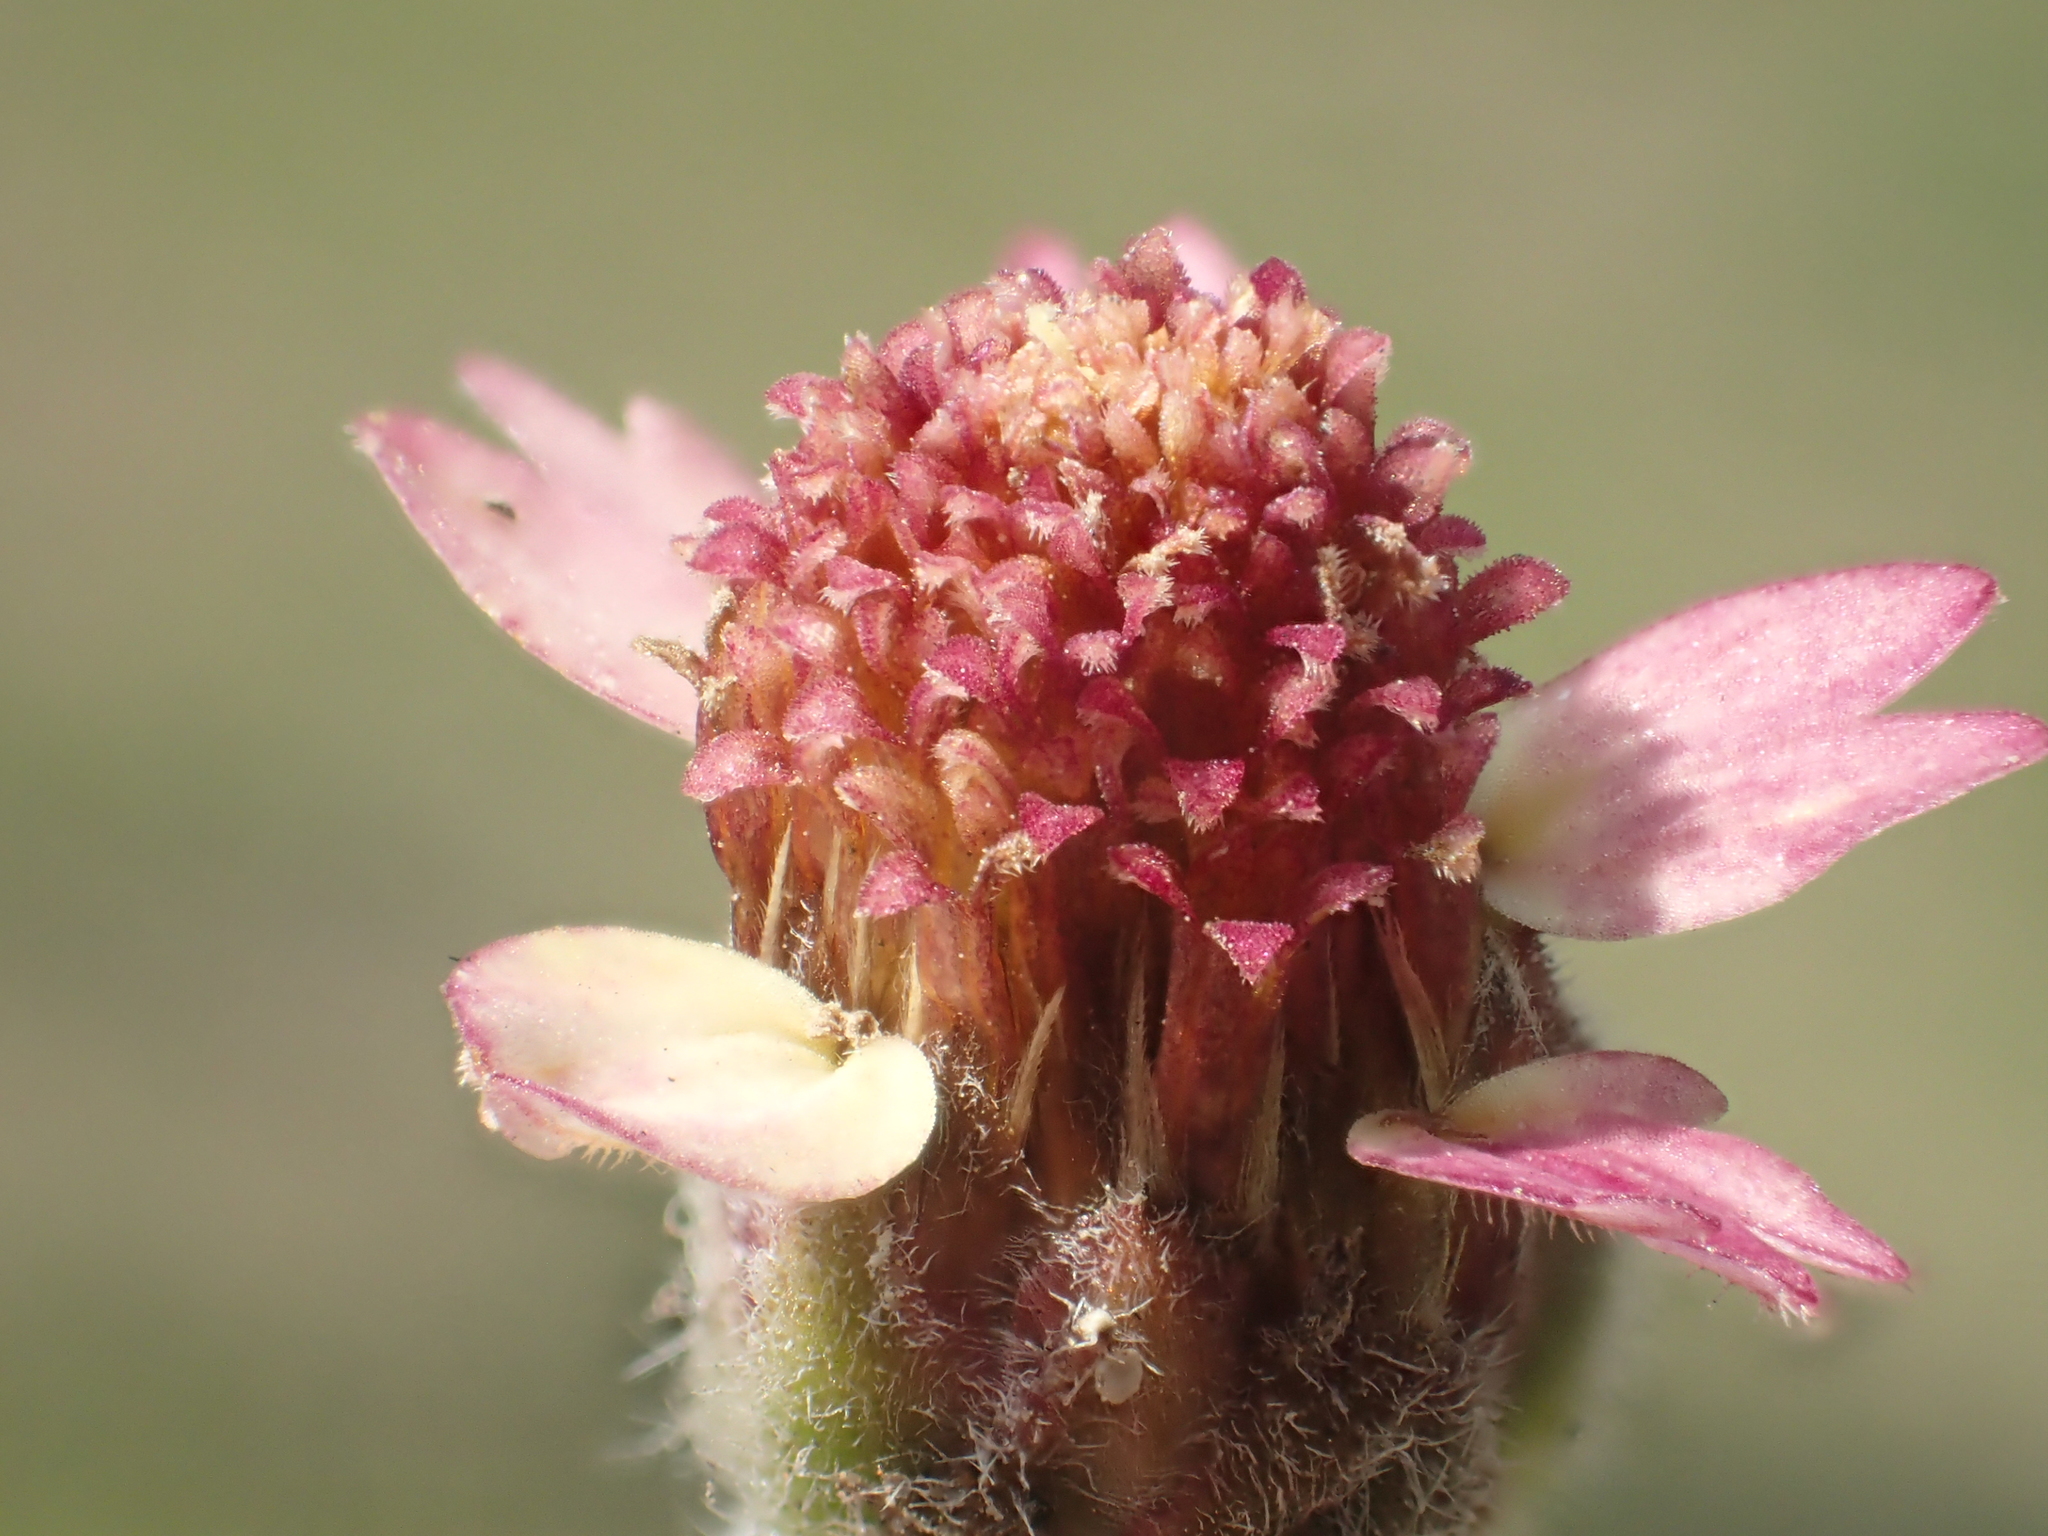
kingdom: Plantae
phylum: Tracheophyta
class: Magnoliopsida
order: Asterales
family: Asteraceae
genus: Tridax
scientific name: Tridax procumbens
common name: Coatbuttons
